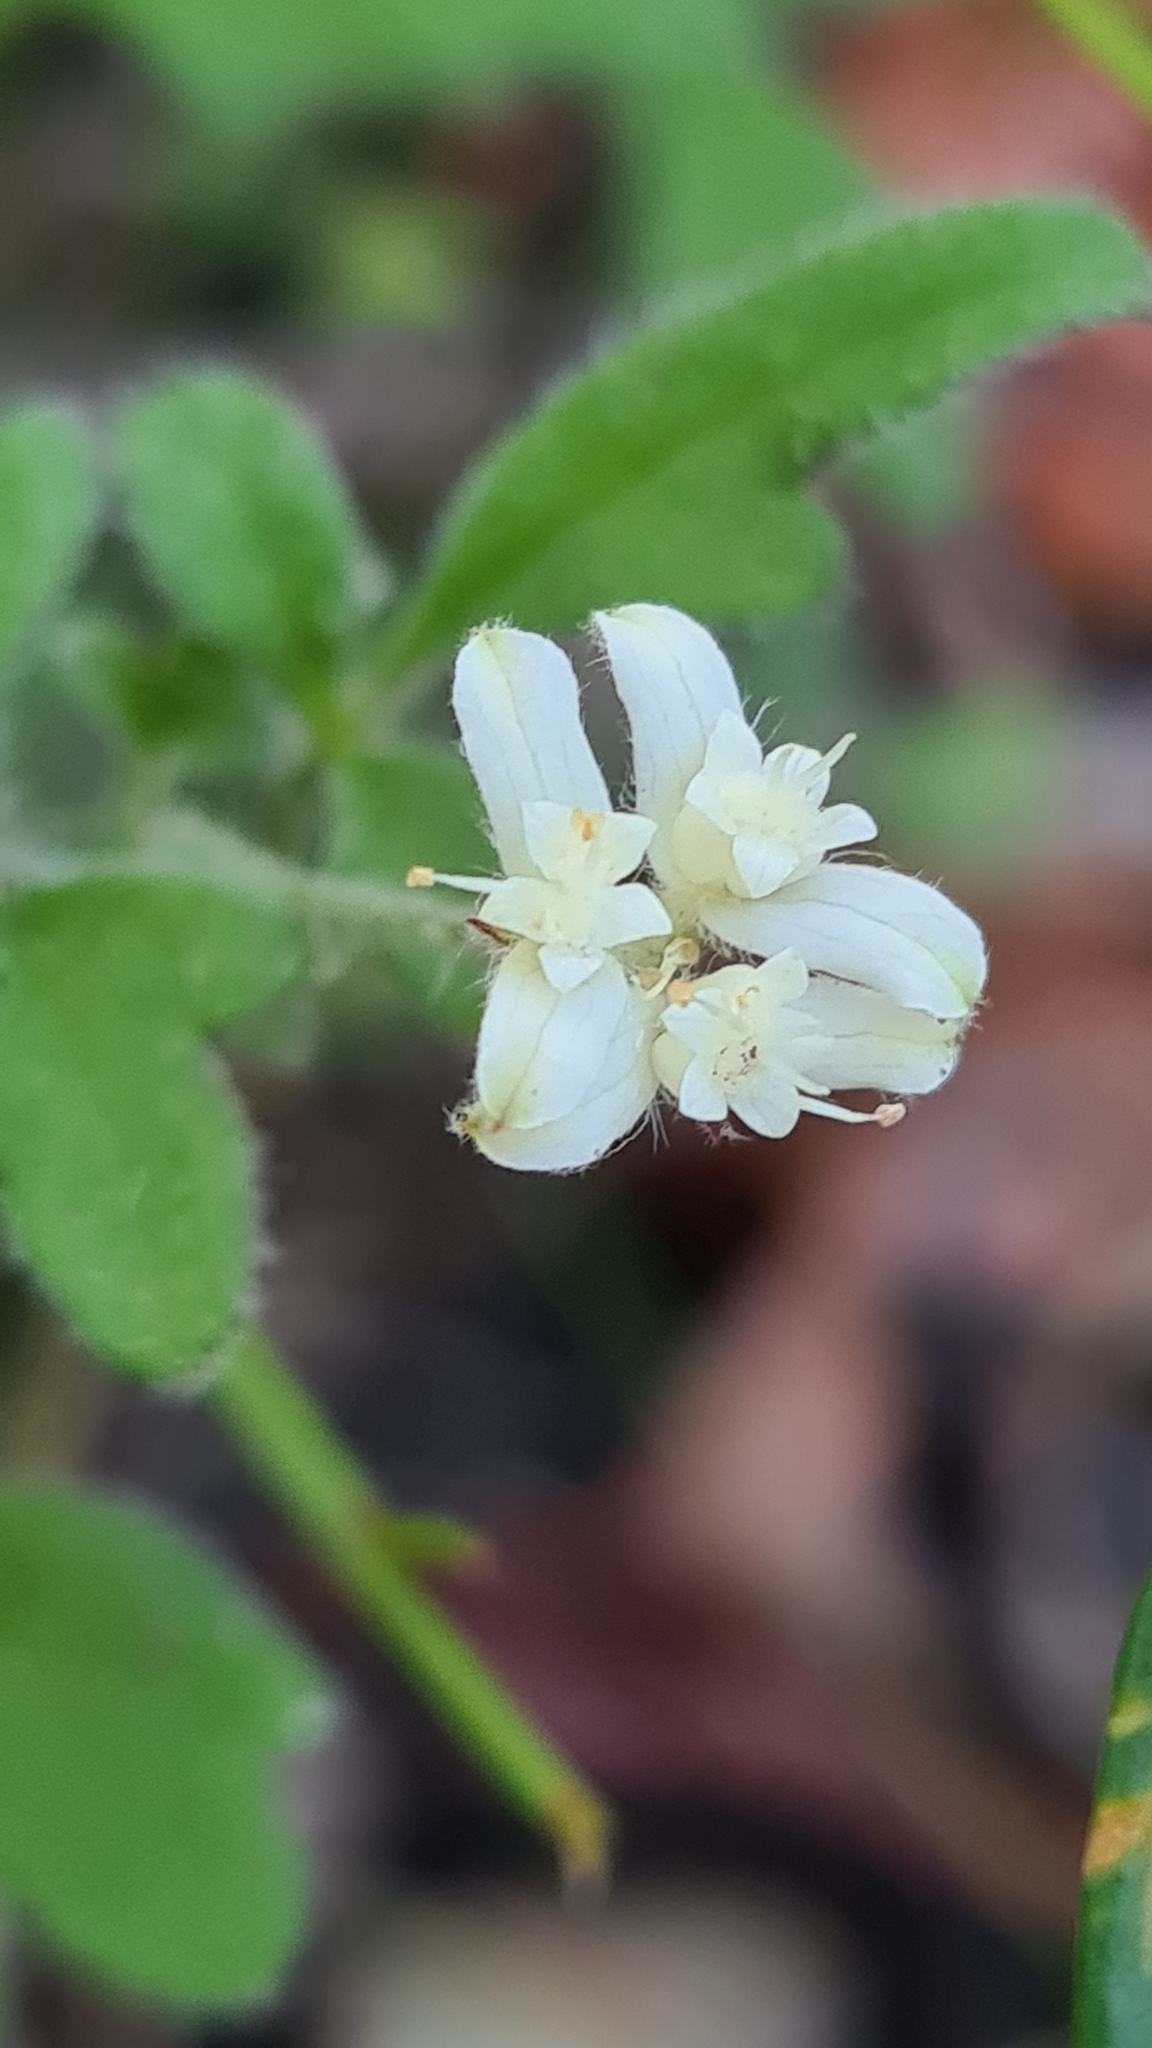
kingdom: Plantae
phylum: Tracheophyta
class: Magnoliopsida
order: Apiales
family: Apiaceae
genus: Xanthosia
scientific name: Xanthosia pilosa
